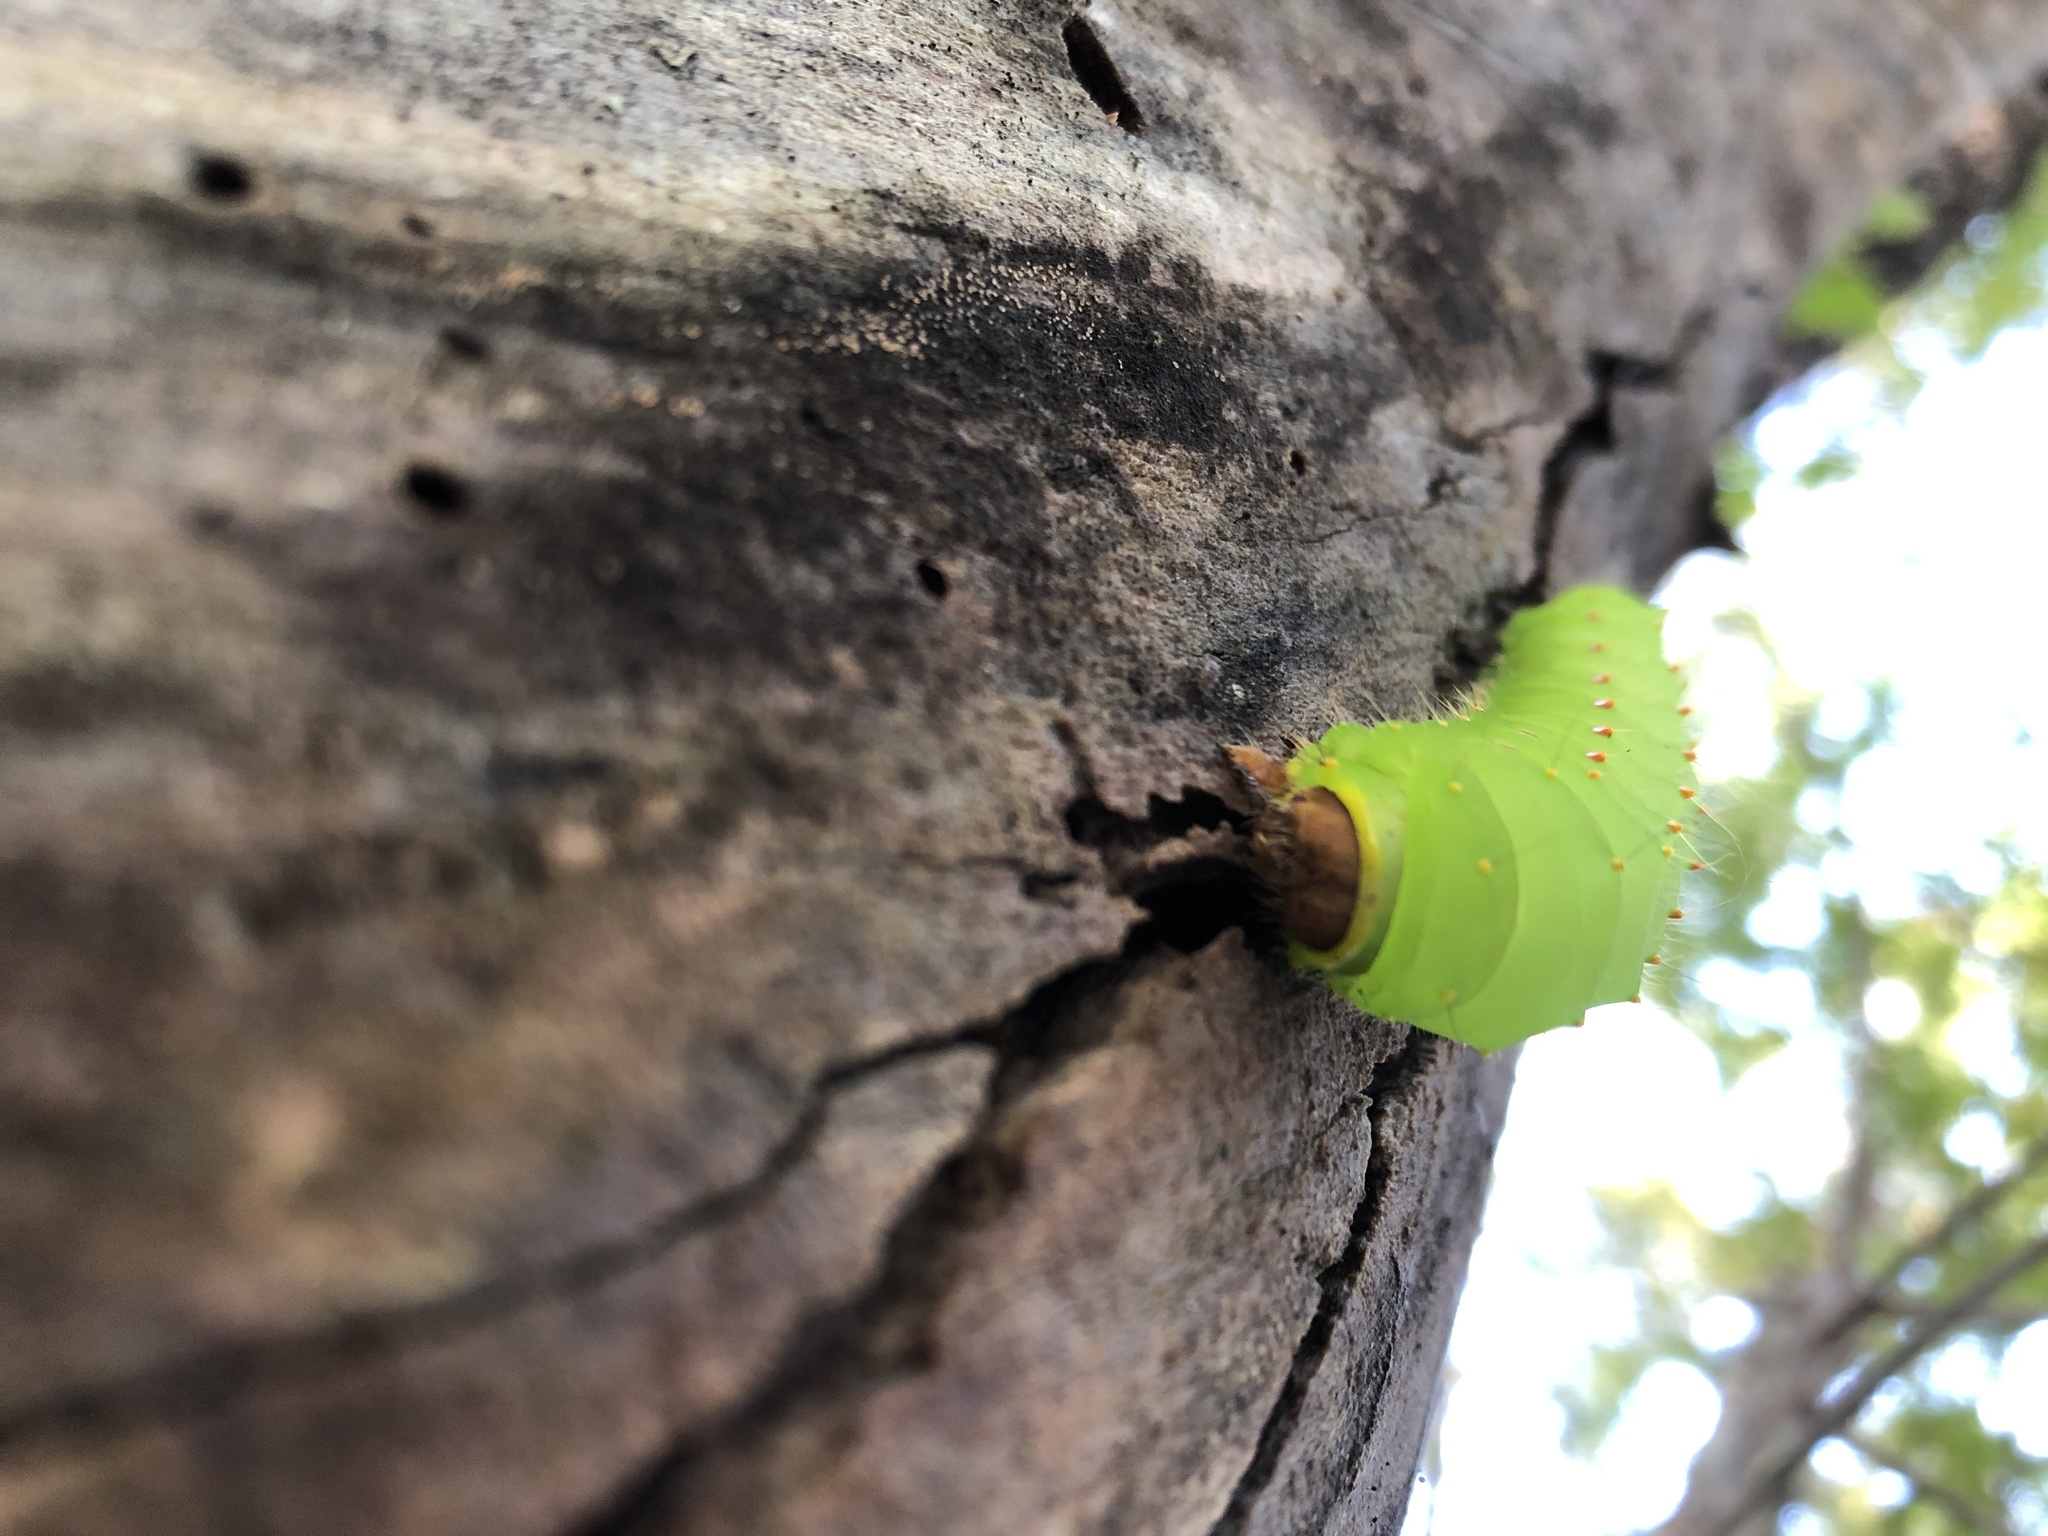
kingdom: Animalia
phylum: Arthropoda
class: Insecta
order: Lepidoptera
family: Saturniidae
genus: Antheraea
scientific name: Antheraea polyphemus
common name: Polyphemus moth
